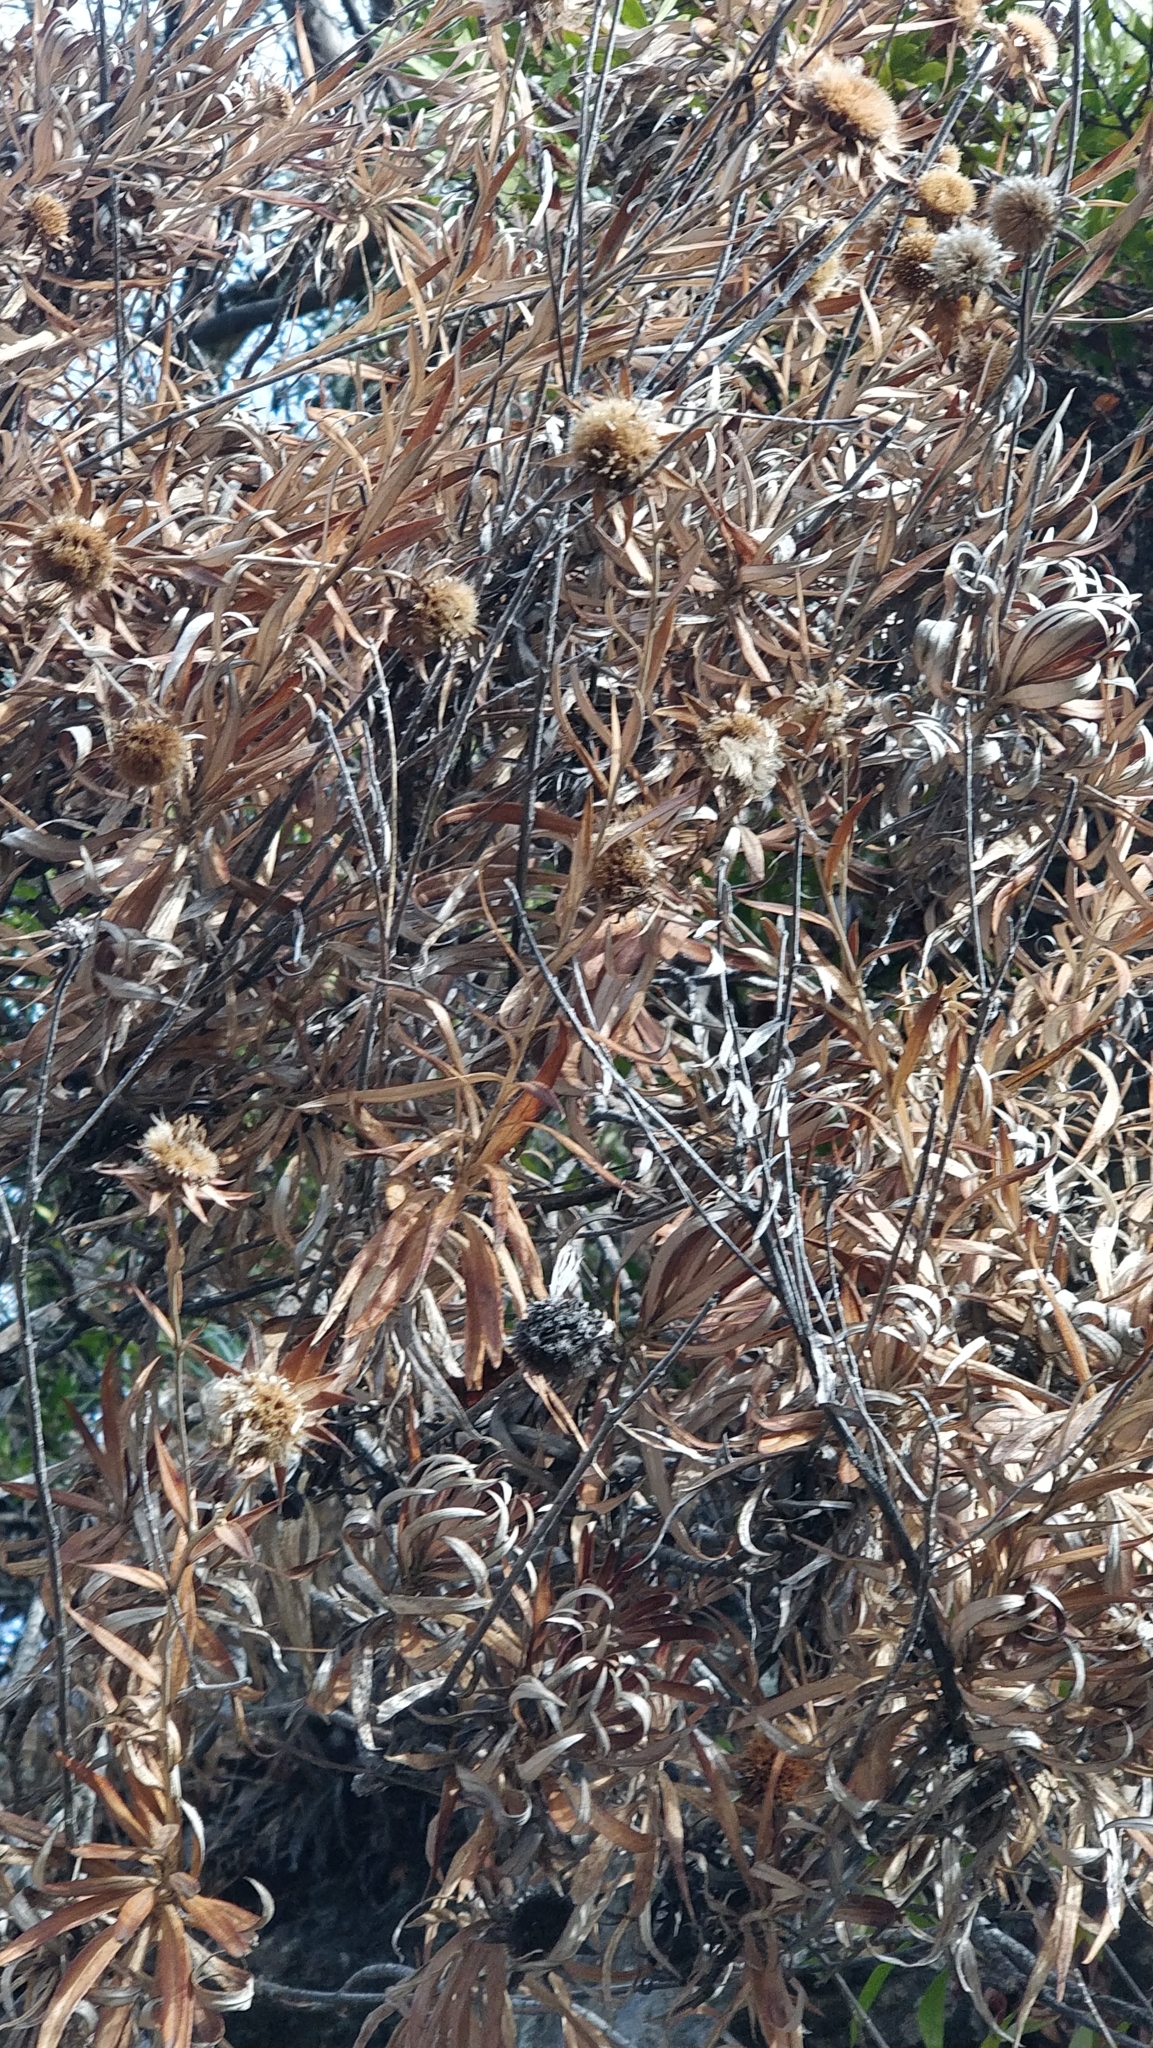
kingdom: Plantae
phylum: Tracheophyta
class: Magnoliopsida
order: Asterales
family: Asteraceae
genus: Carlina
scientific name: Carlina salicifolia
